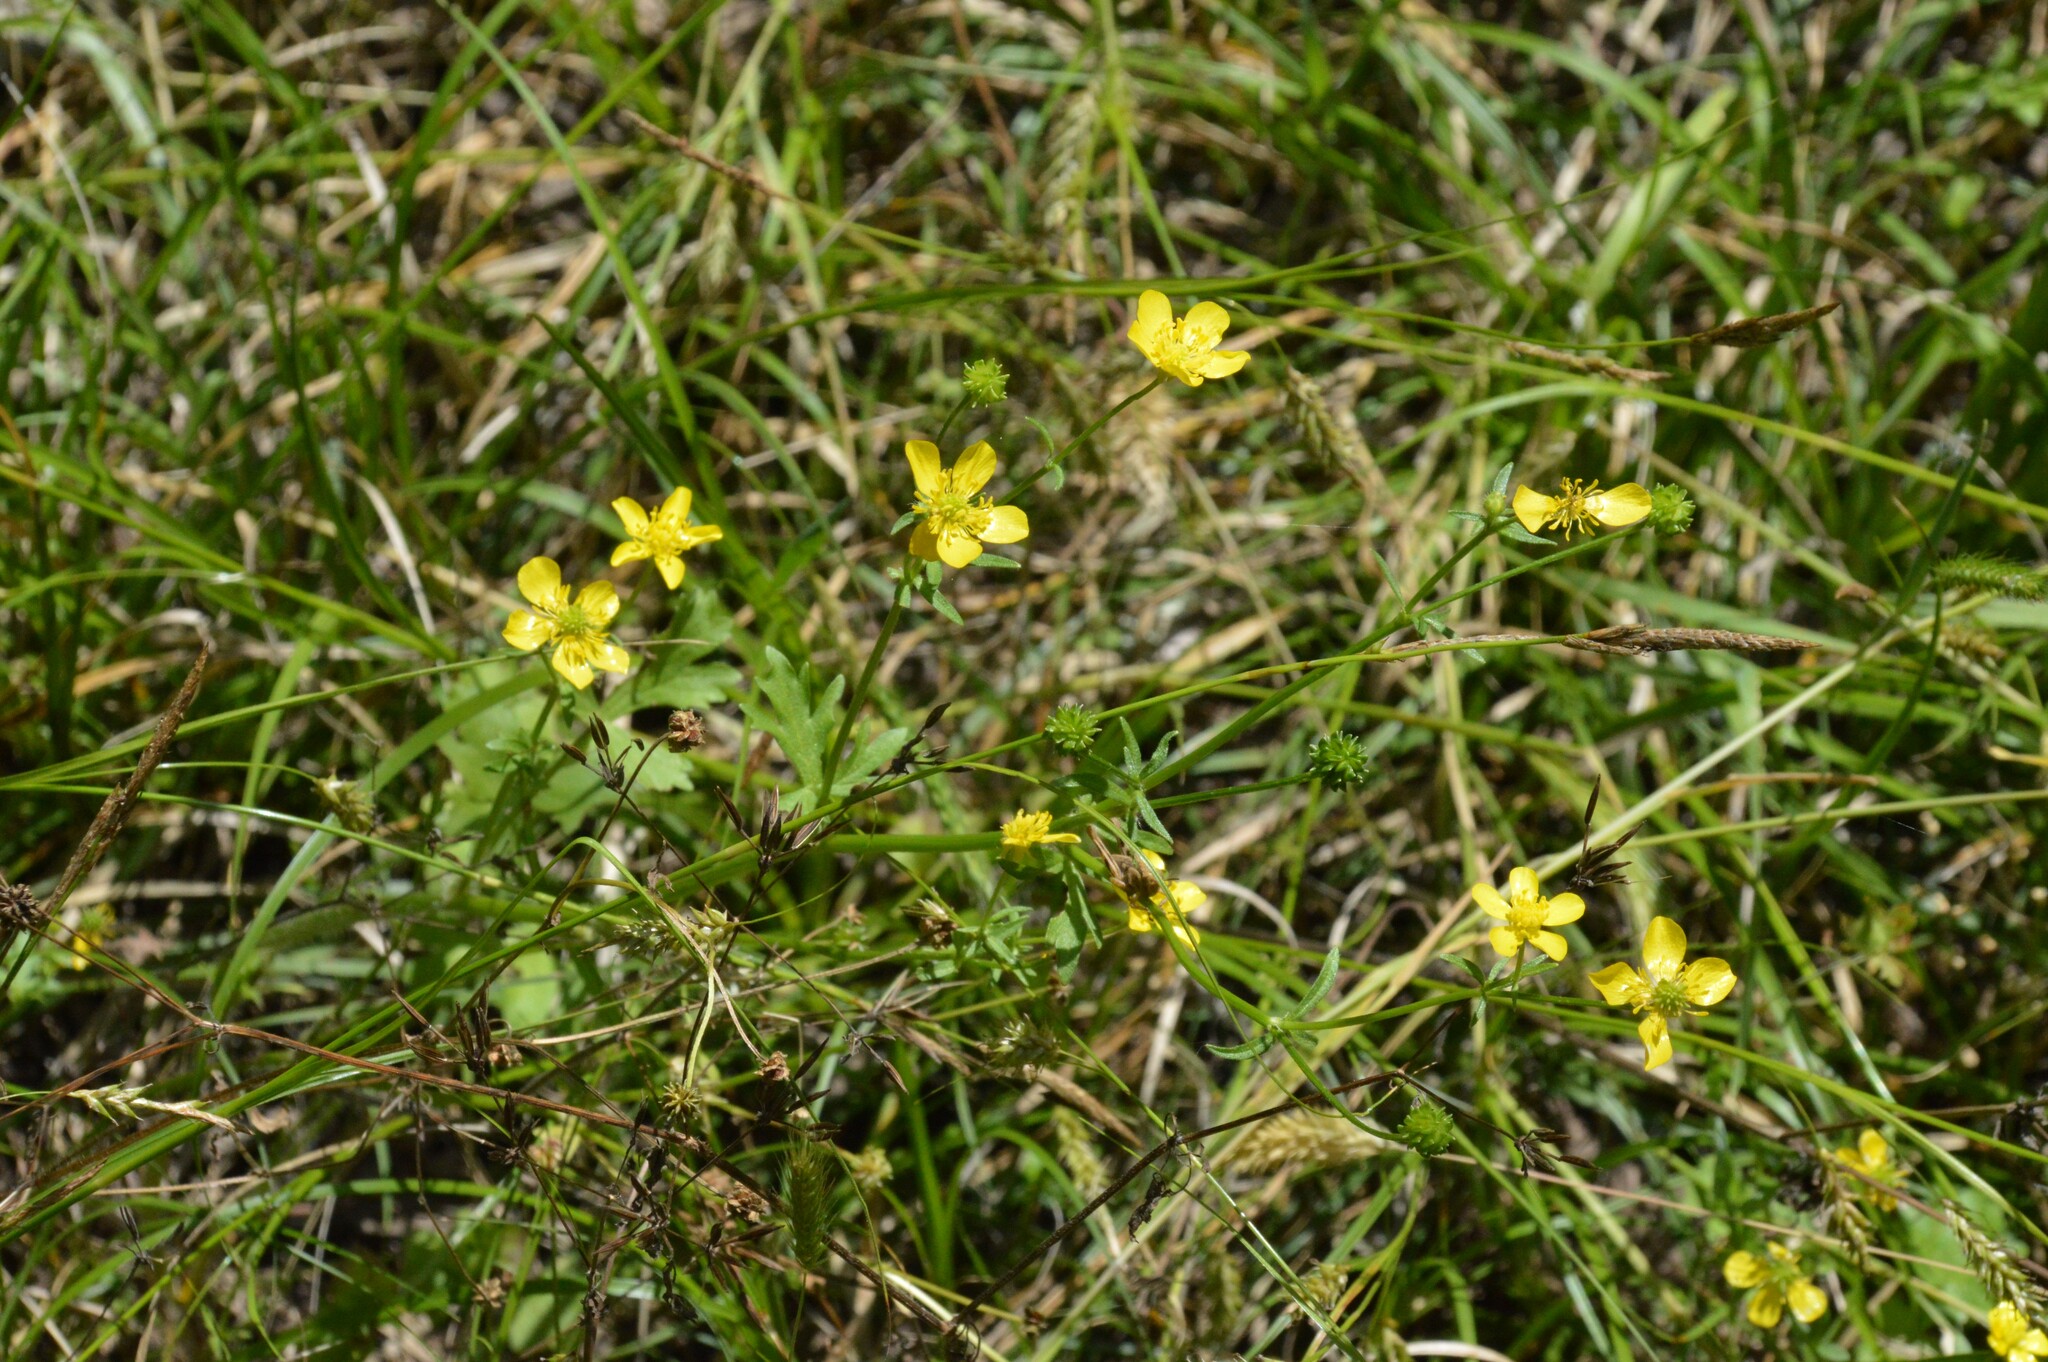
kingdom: Plantae
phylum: Tracheophyta
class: Magnoliopsida
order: Ranunculales
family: Ranunculaceae
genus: Ranunculus
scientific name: Ranunculus sardous
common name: Hairy buttercup
